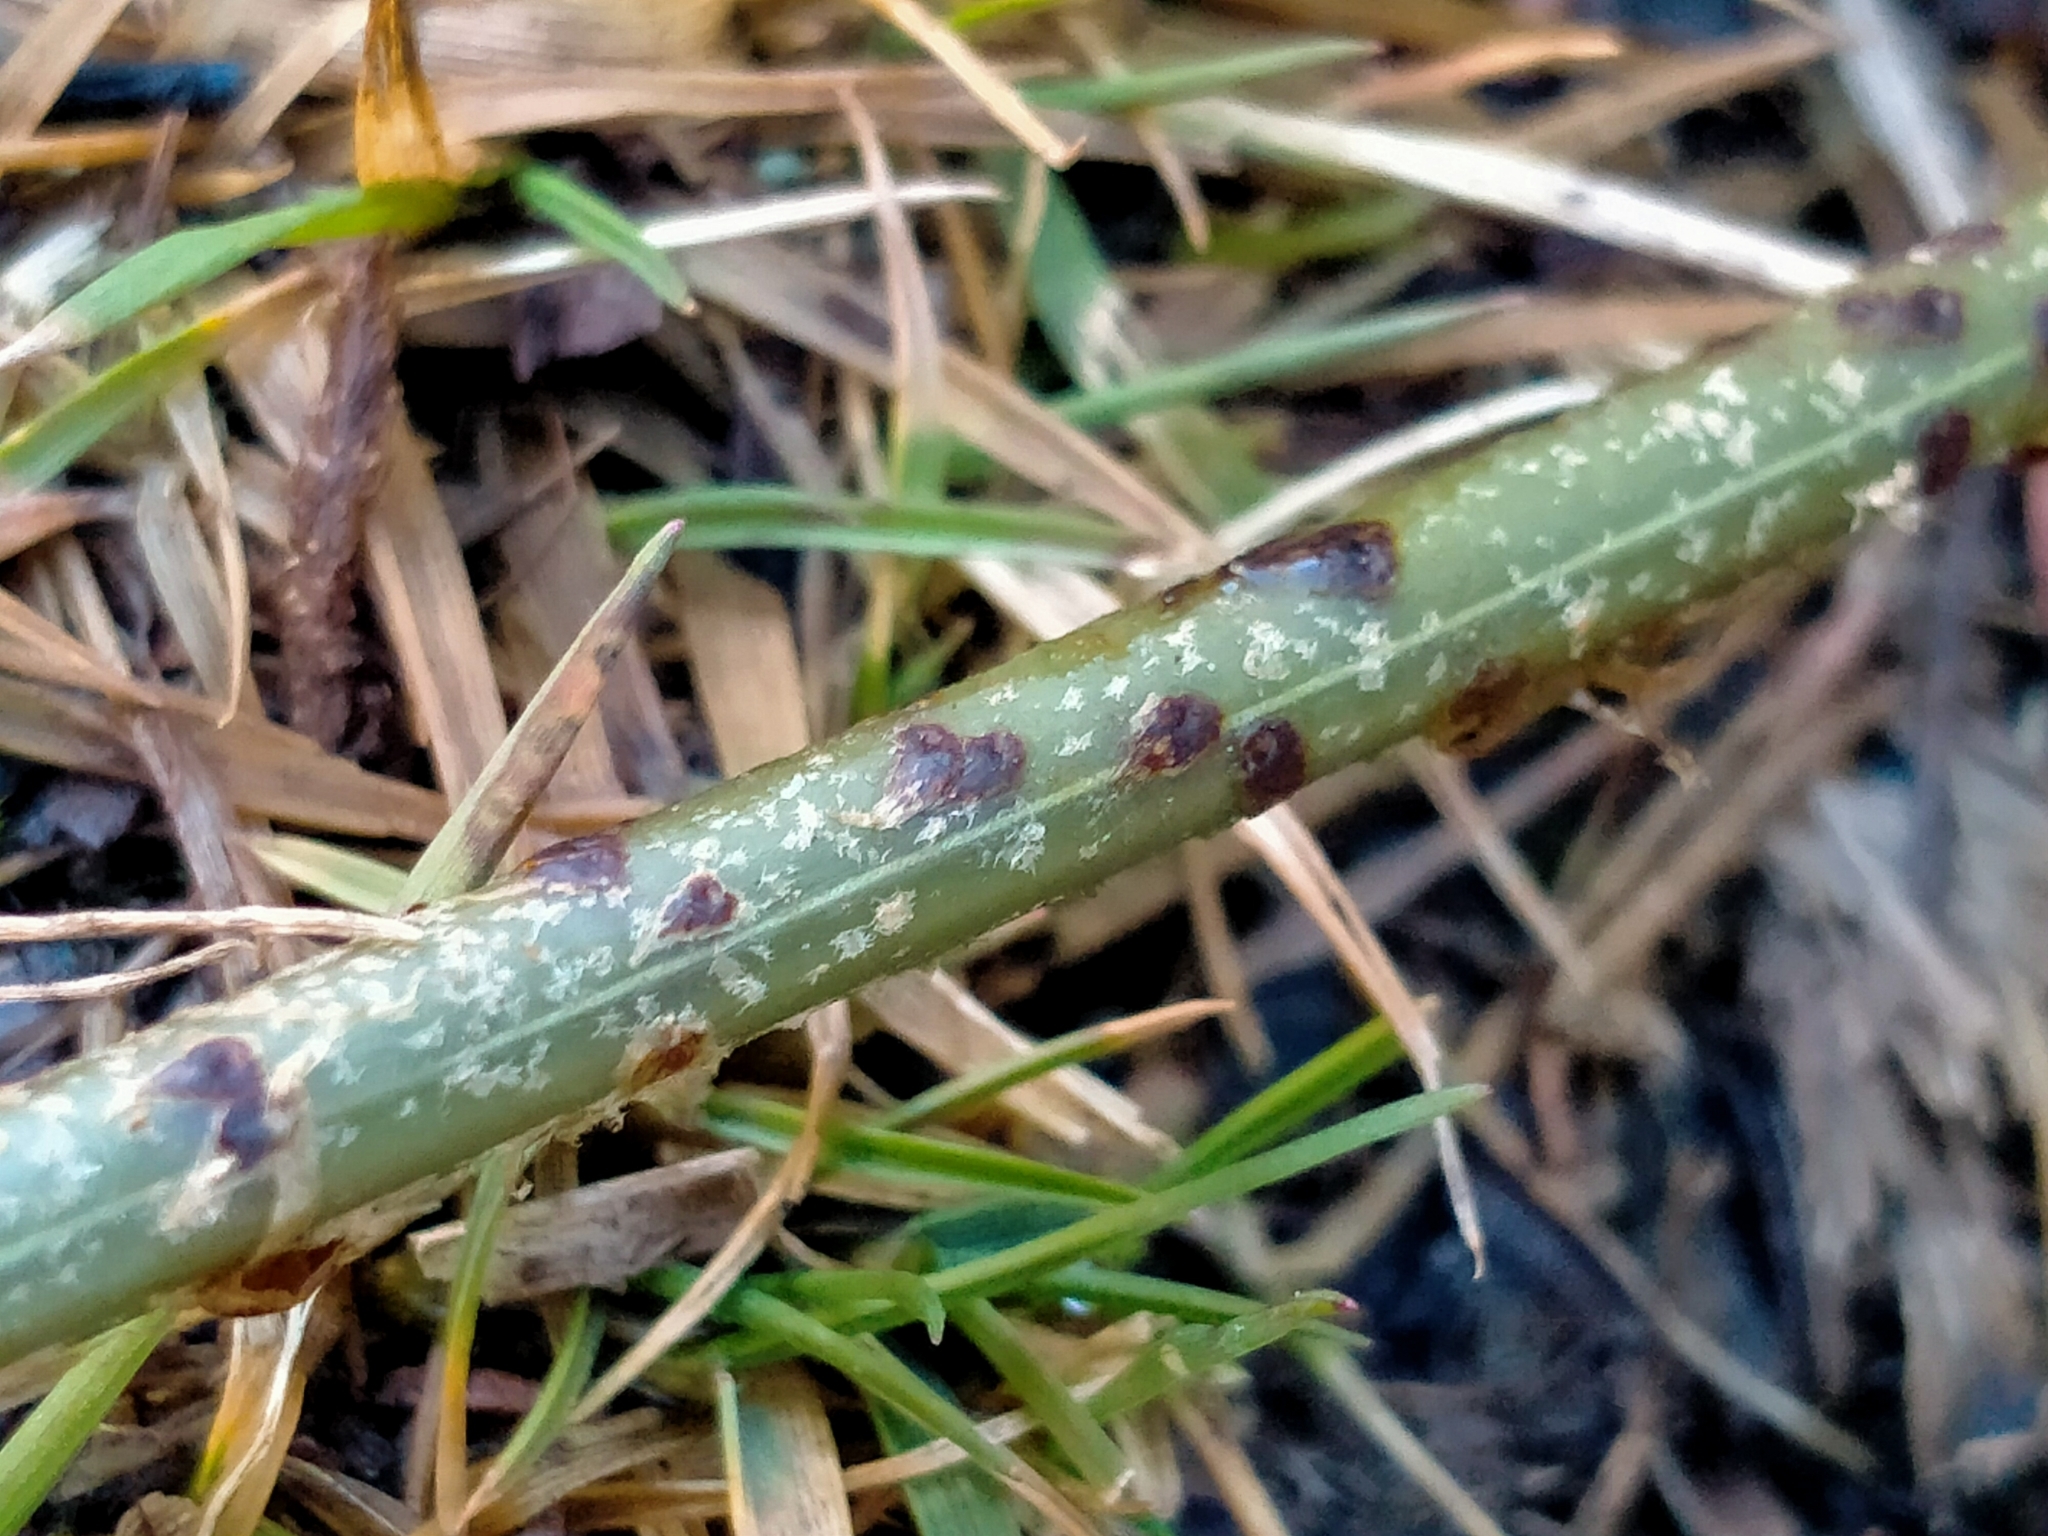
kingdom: Plantae
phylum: Tracheophyta
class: Polypodiopsida
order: Polypodiales
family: Blechnaceae
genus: Parablechnum
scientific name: Parablechnum montanum
